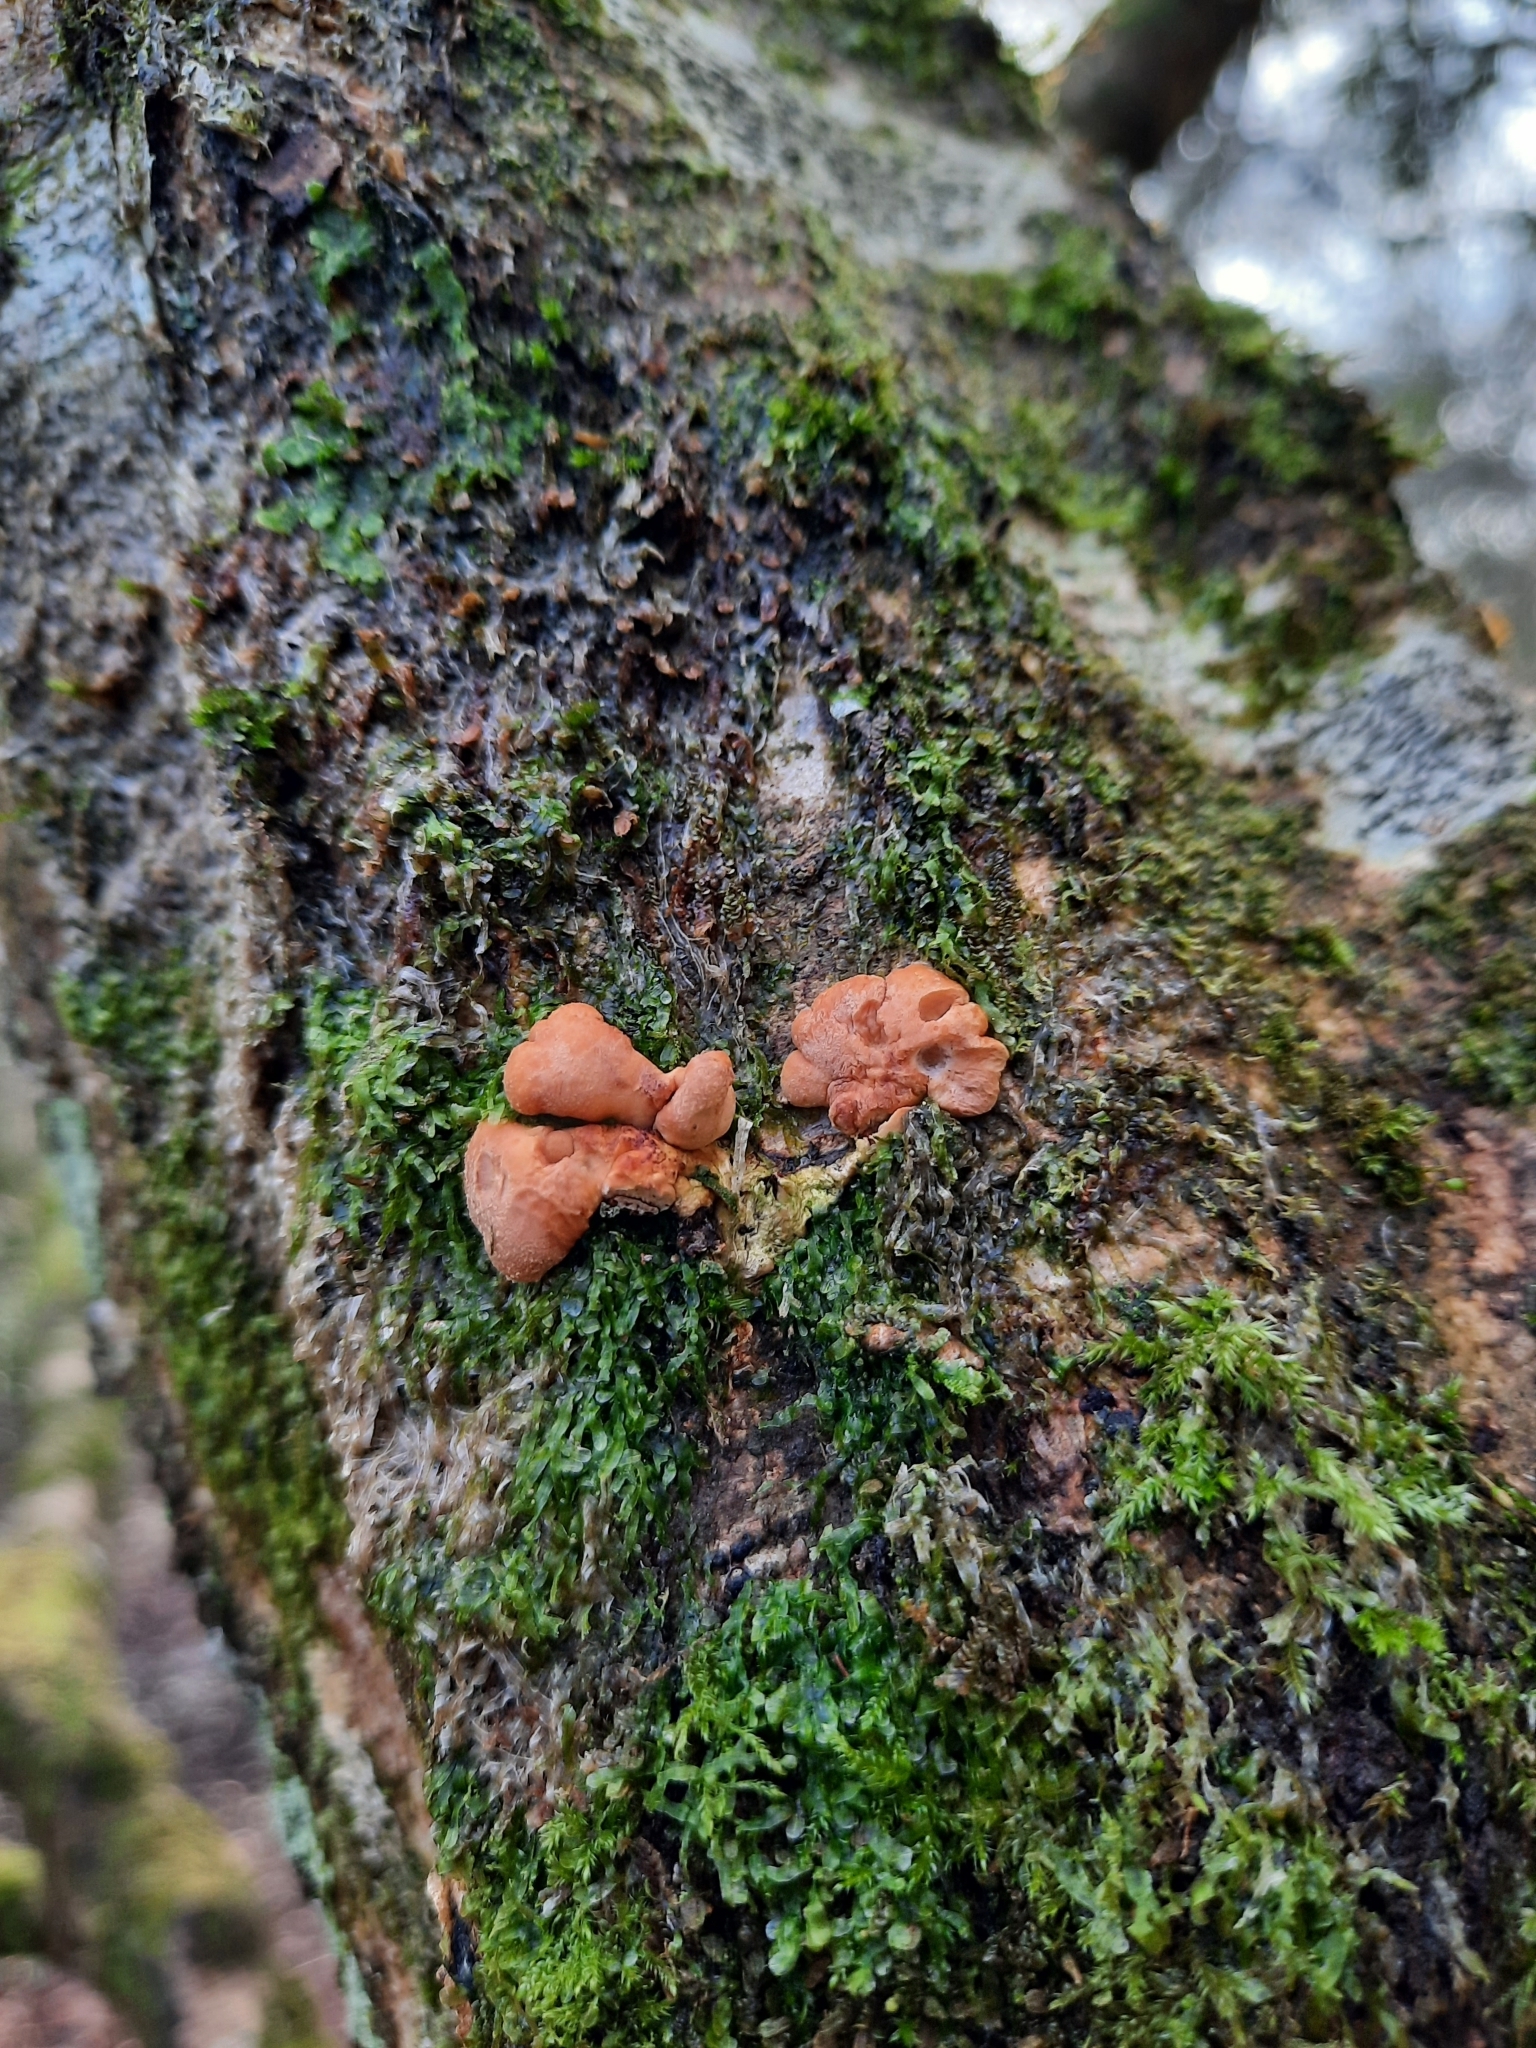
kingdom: Fungi
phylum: Ascomycota
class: Sordariomycetes
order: Hypocreales
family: Hypocreaceae
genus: Hypocreopsis
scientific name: Hypocreopsis rhododendri
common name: Hazel gloves
